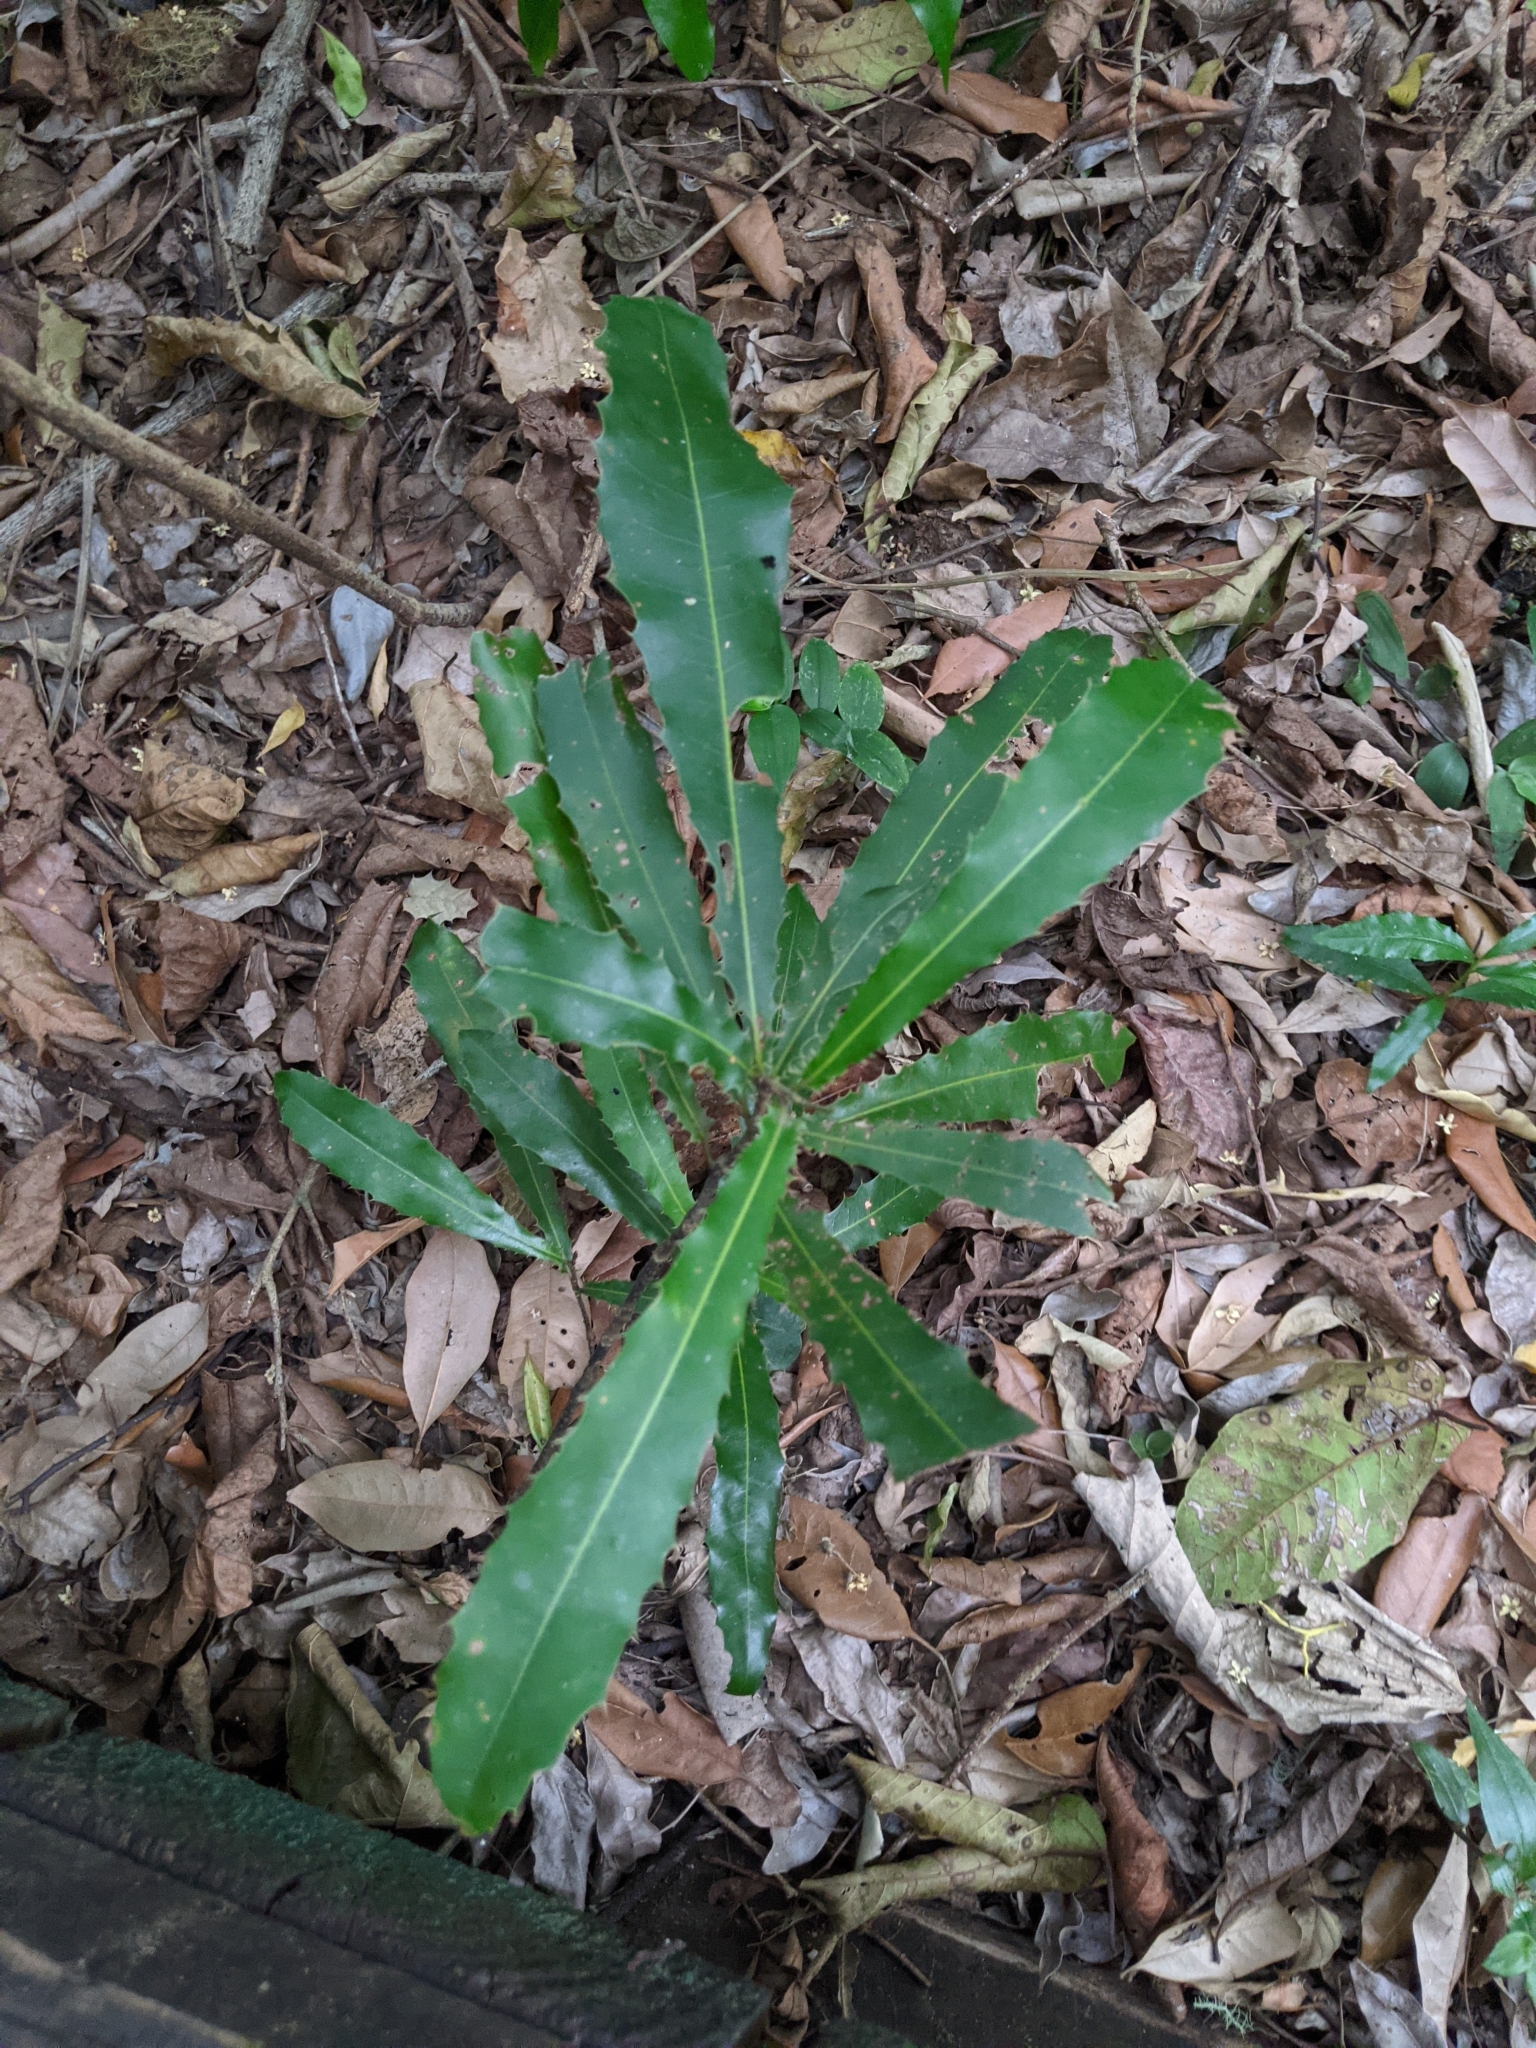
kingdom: Plantae
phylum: Tracheophyta
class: Magnoliopsida
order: Proteales
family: Proteaceae
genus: Macadamia
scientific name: Macadamia integrifolia
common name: Macadamia
